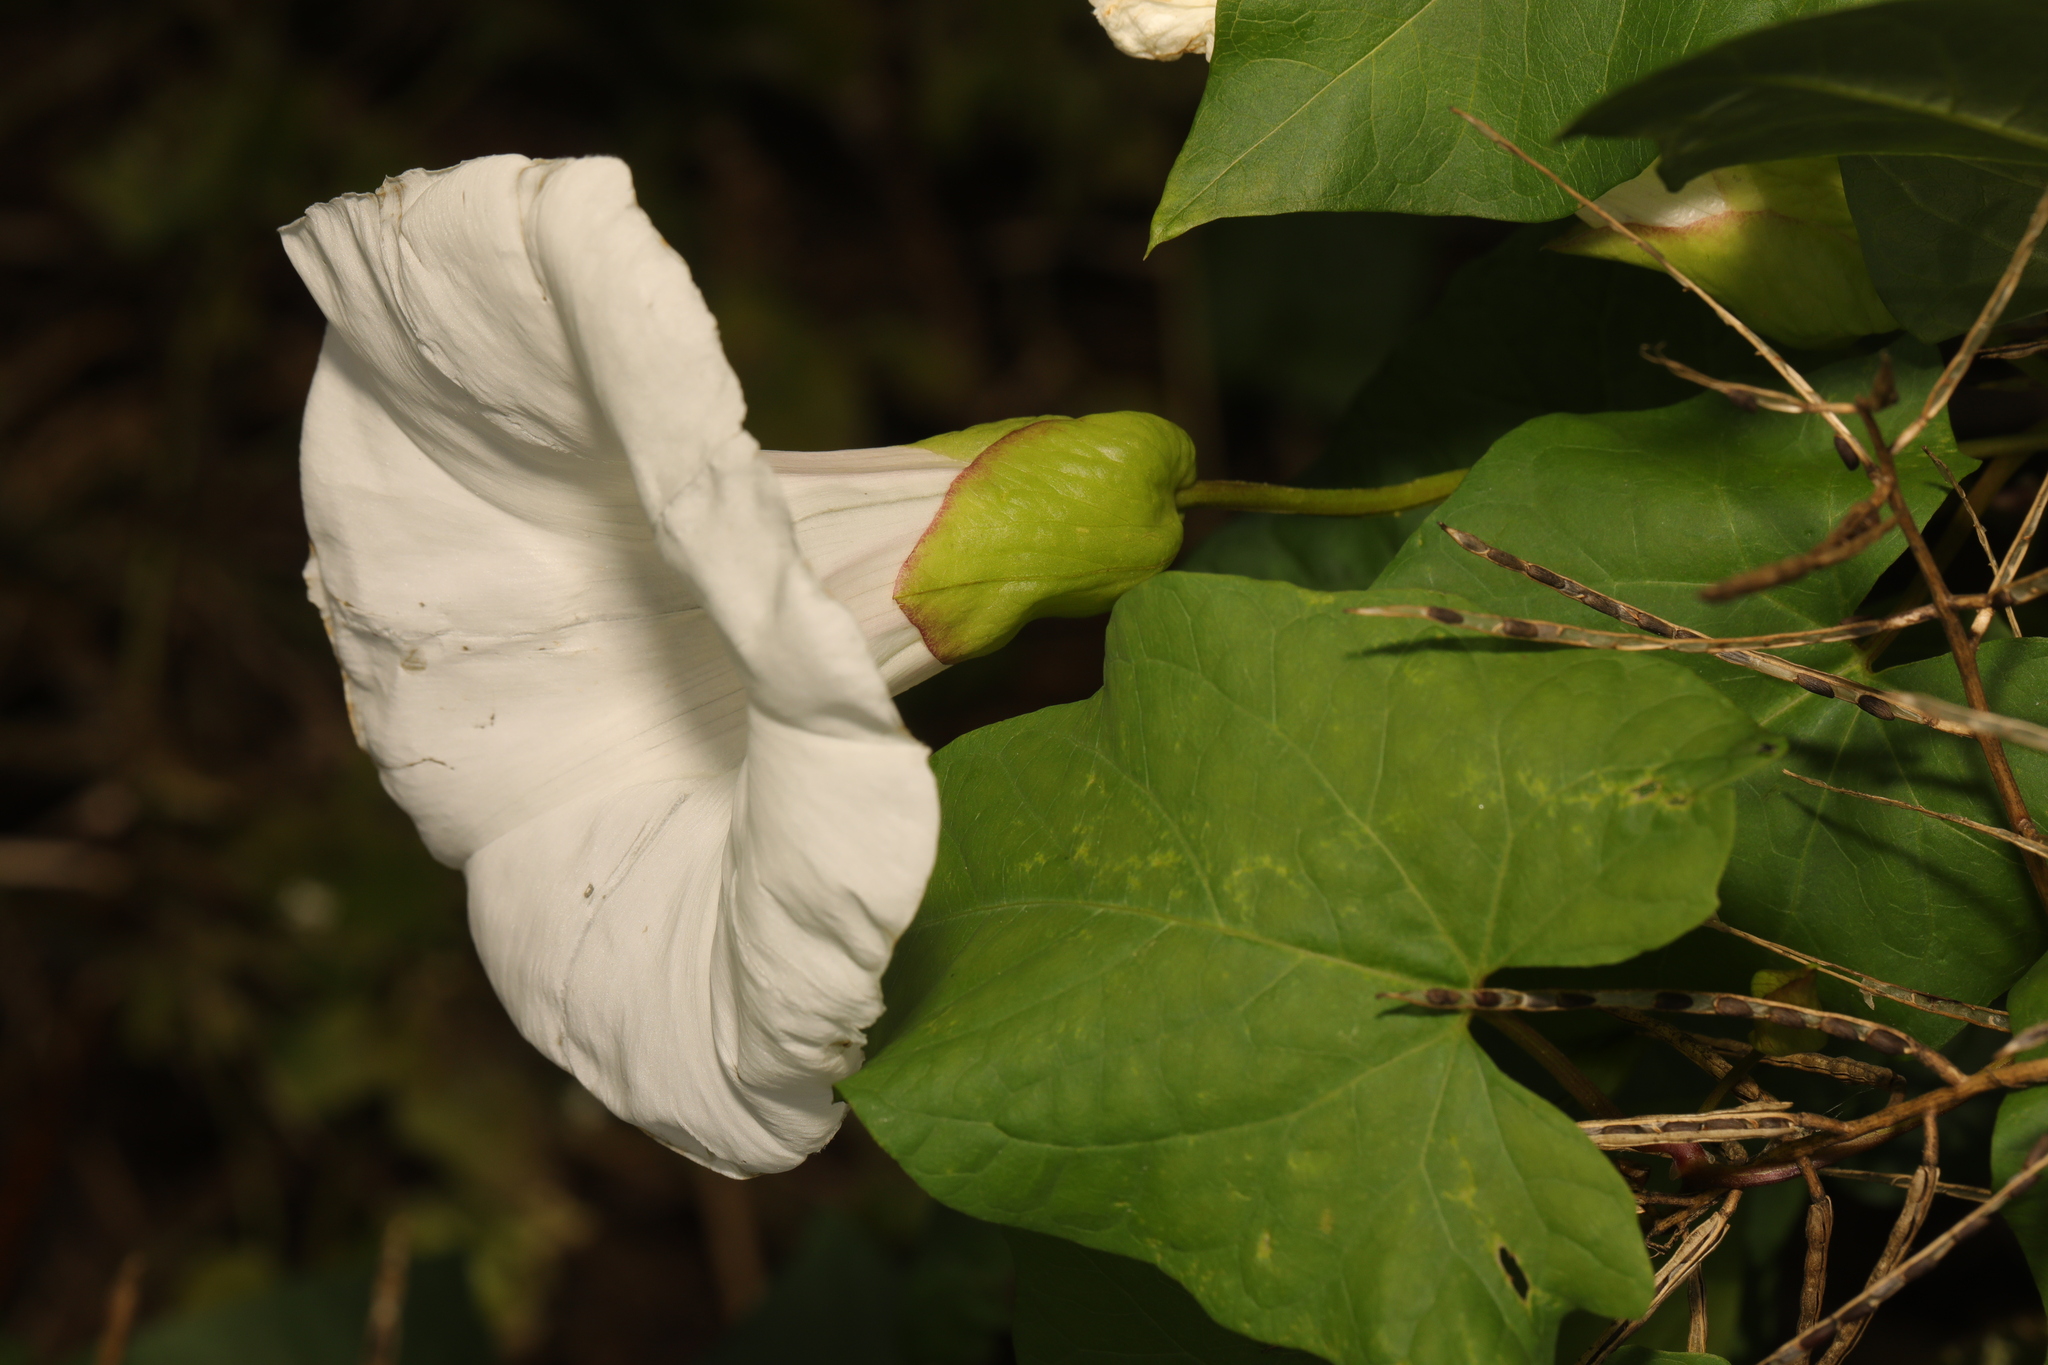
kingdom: Plantae
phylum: Tracheophyta
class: Magnoliopsida
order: Solanales
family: Convolvulaceae
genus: Calystegia
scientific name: Calystegia silvatica
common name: Large bindweed
